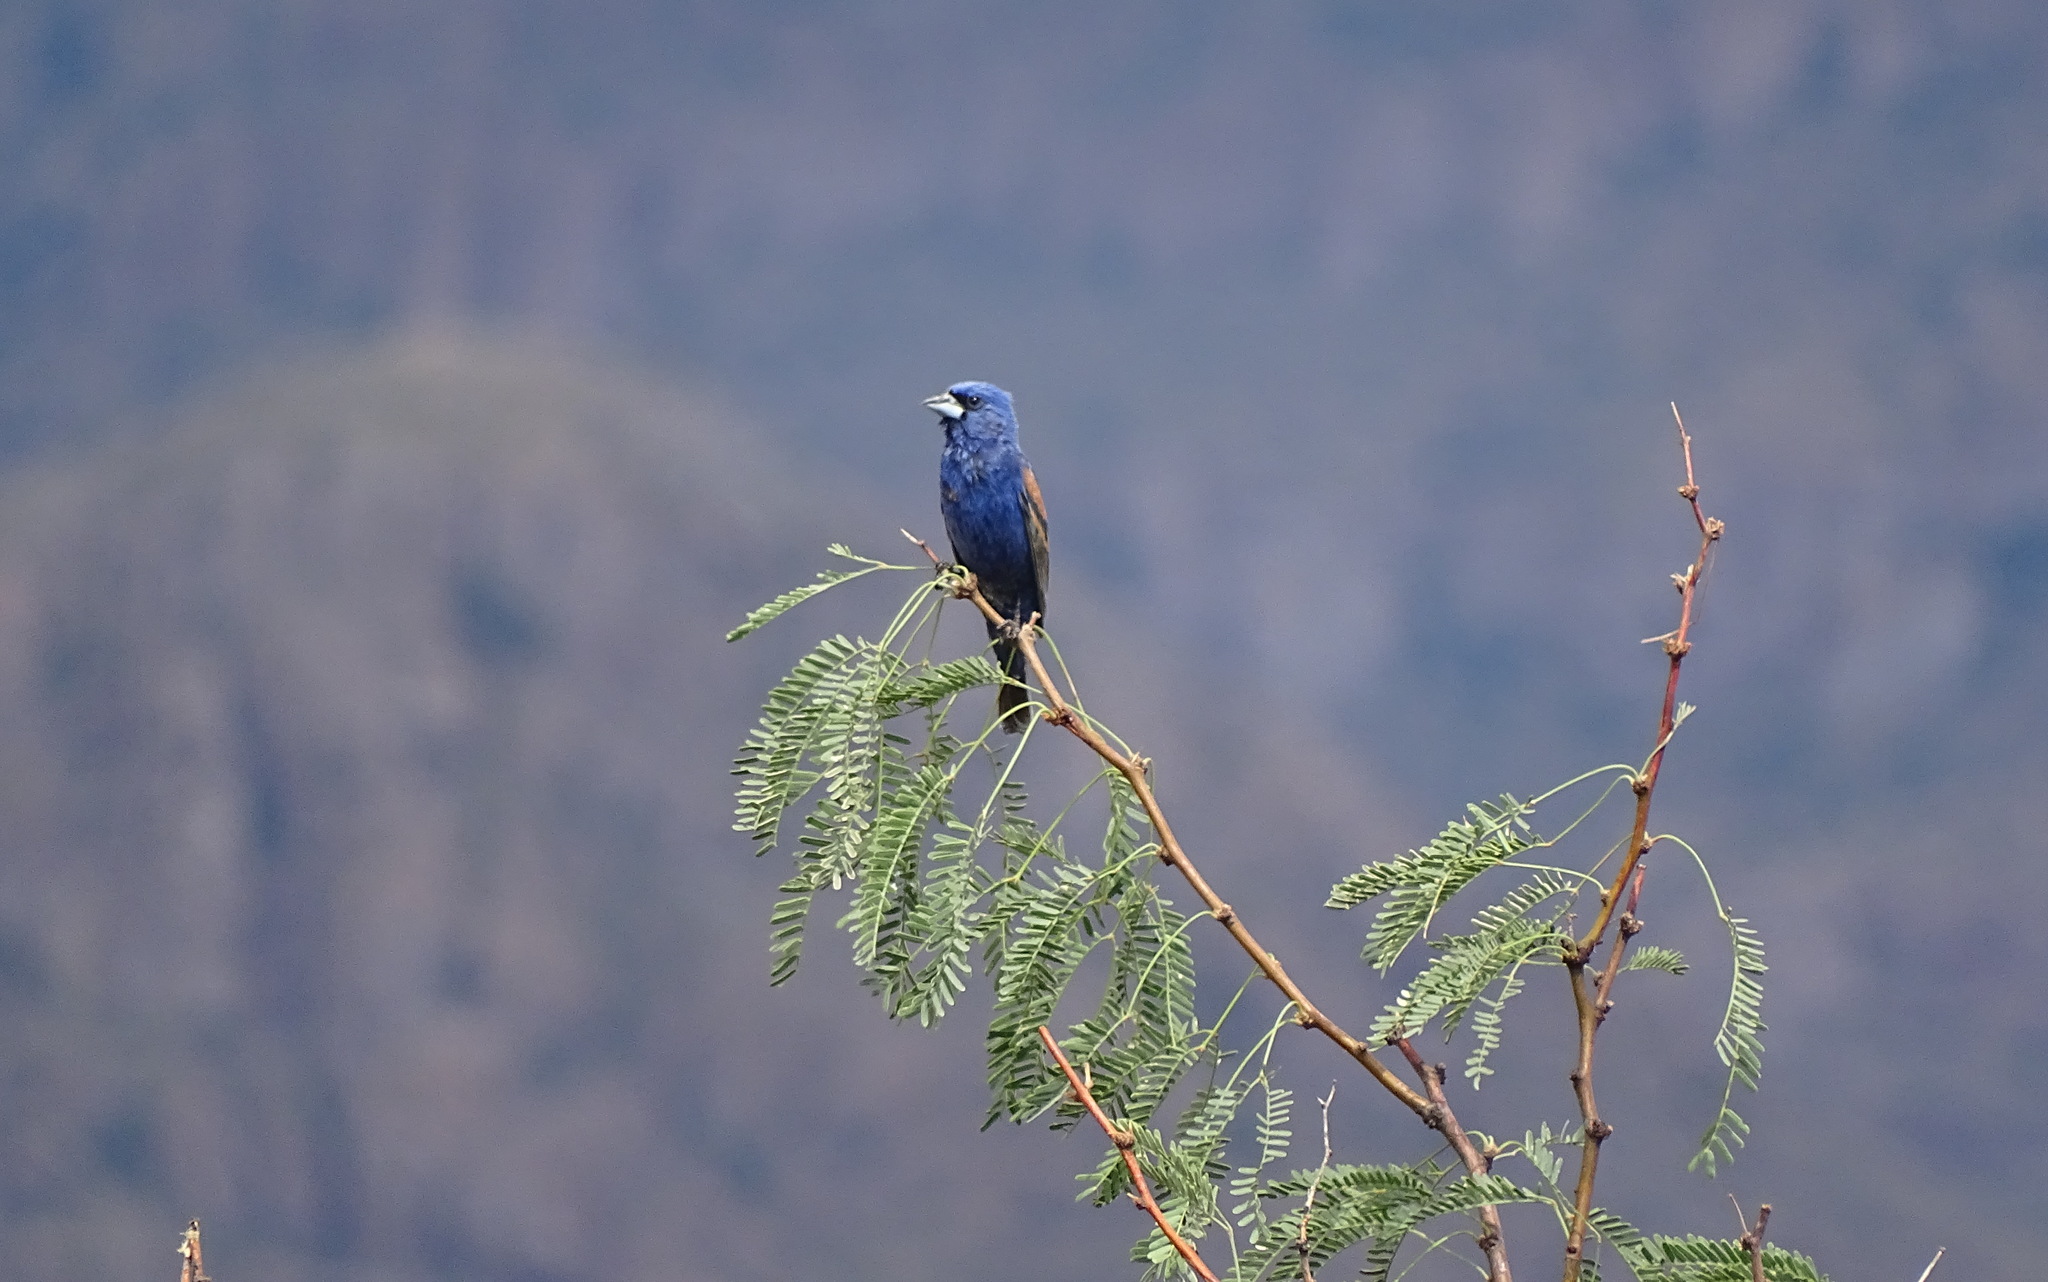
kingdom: Animalia
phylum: Chordata
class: Aves
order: Passeriformes
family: Cardinalidae
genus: Passerina
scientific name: Passerina caerulea
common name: Blue grosbeak
